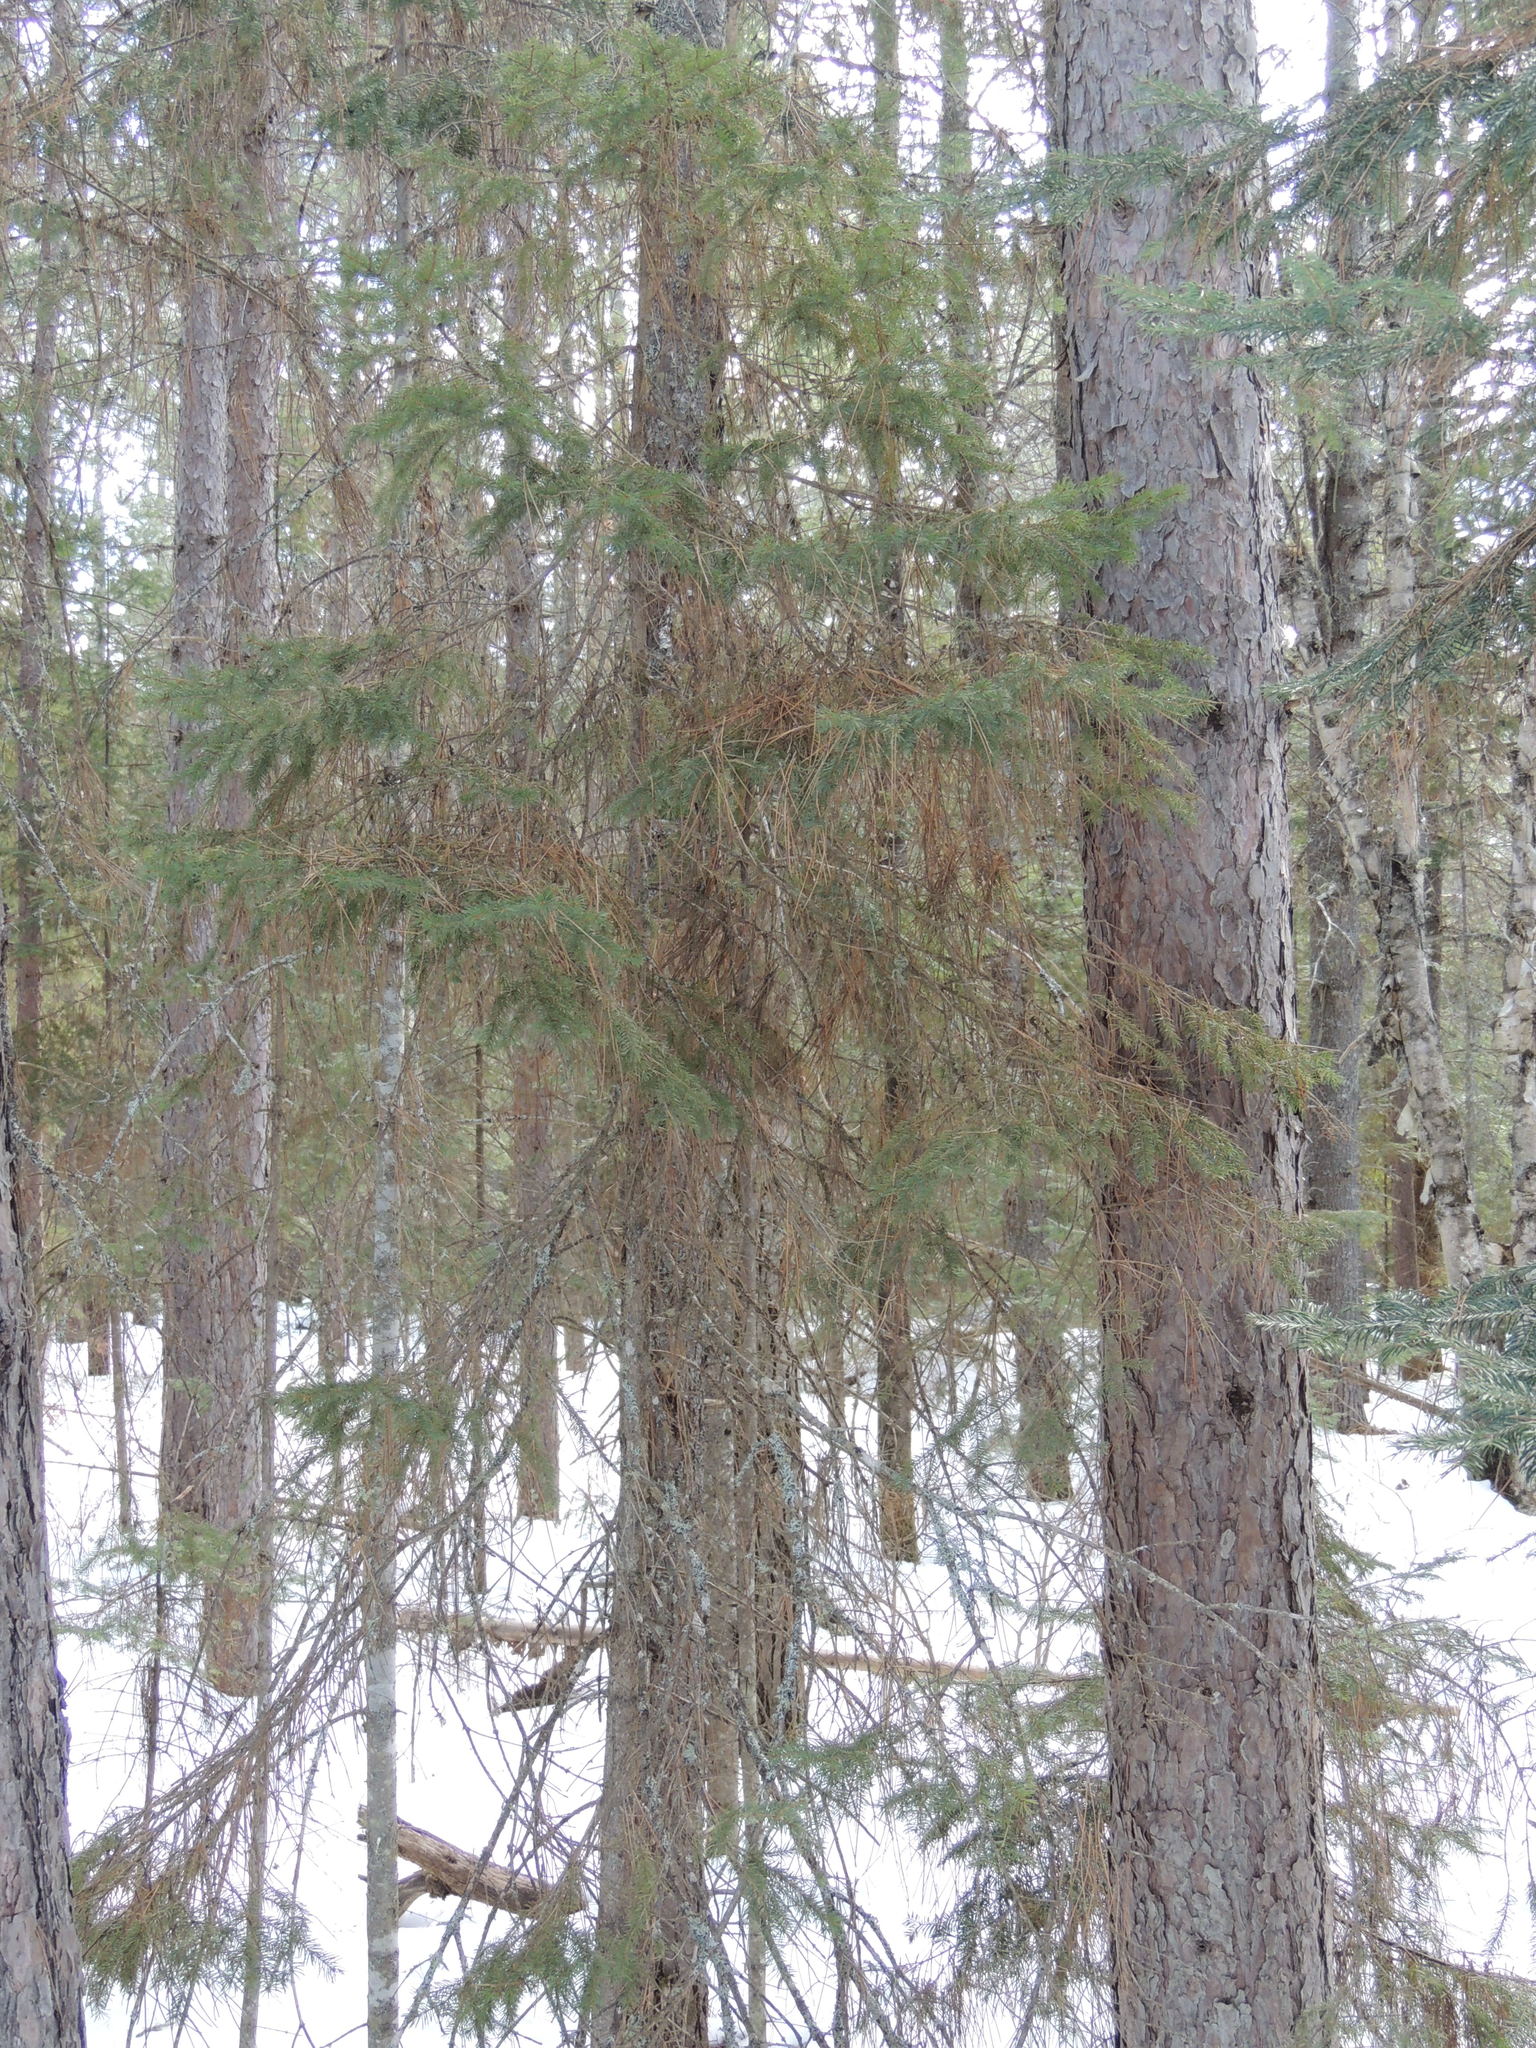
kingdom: Plantae
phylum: Tracheophyta
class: Pinopsida
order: Pinales
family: Pinaceae
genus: Picea
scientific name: Picea glauca
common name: White spruce
